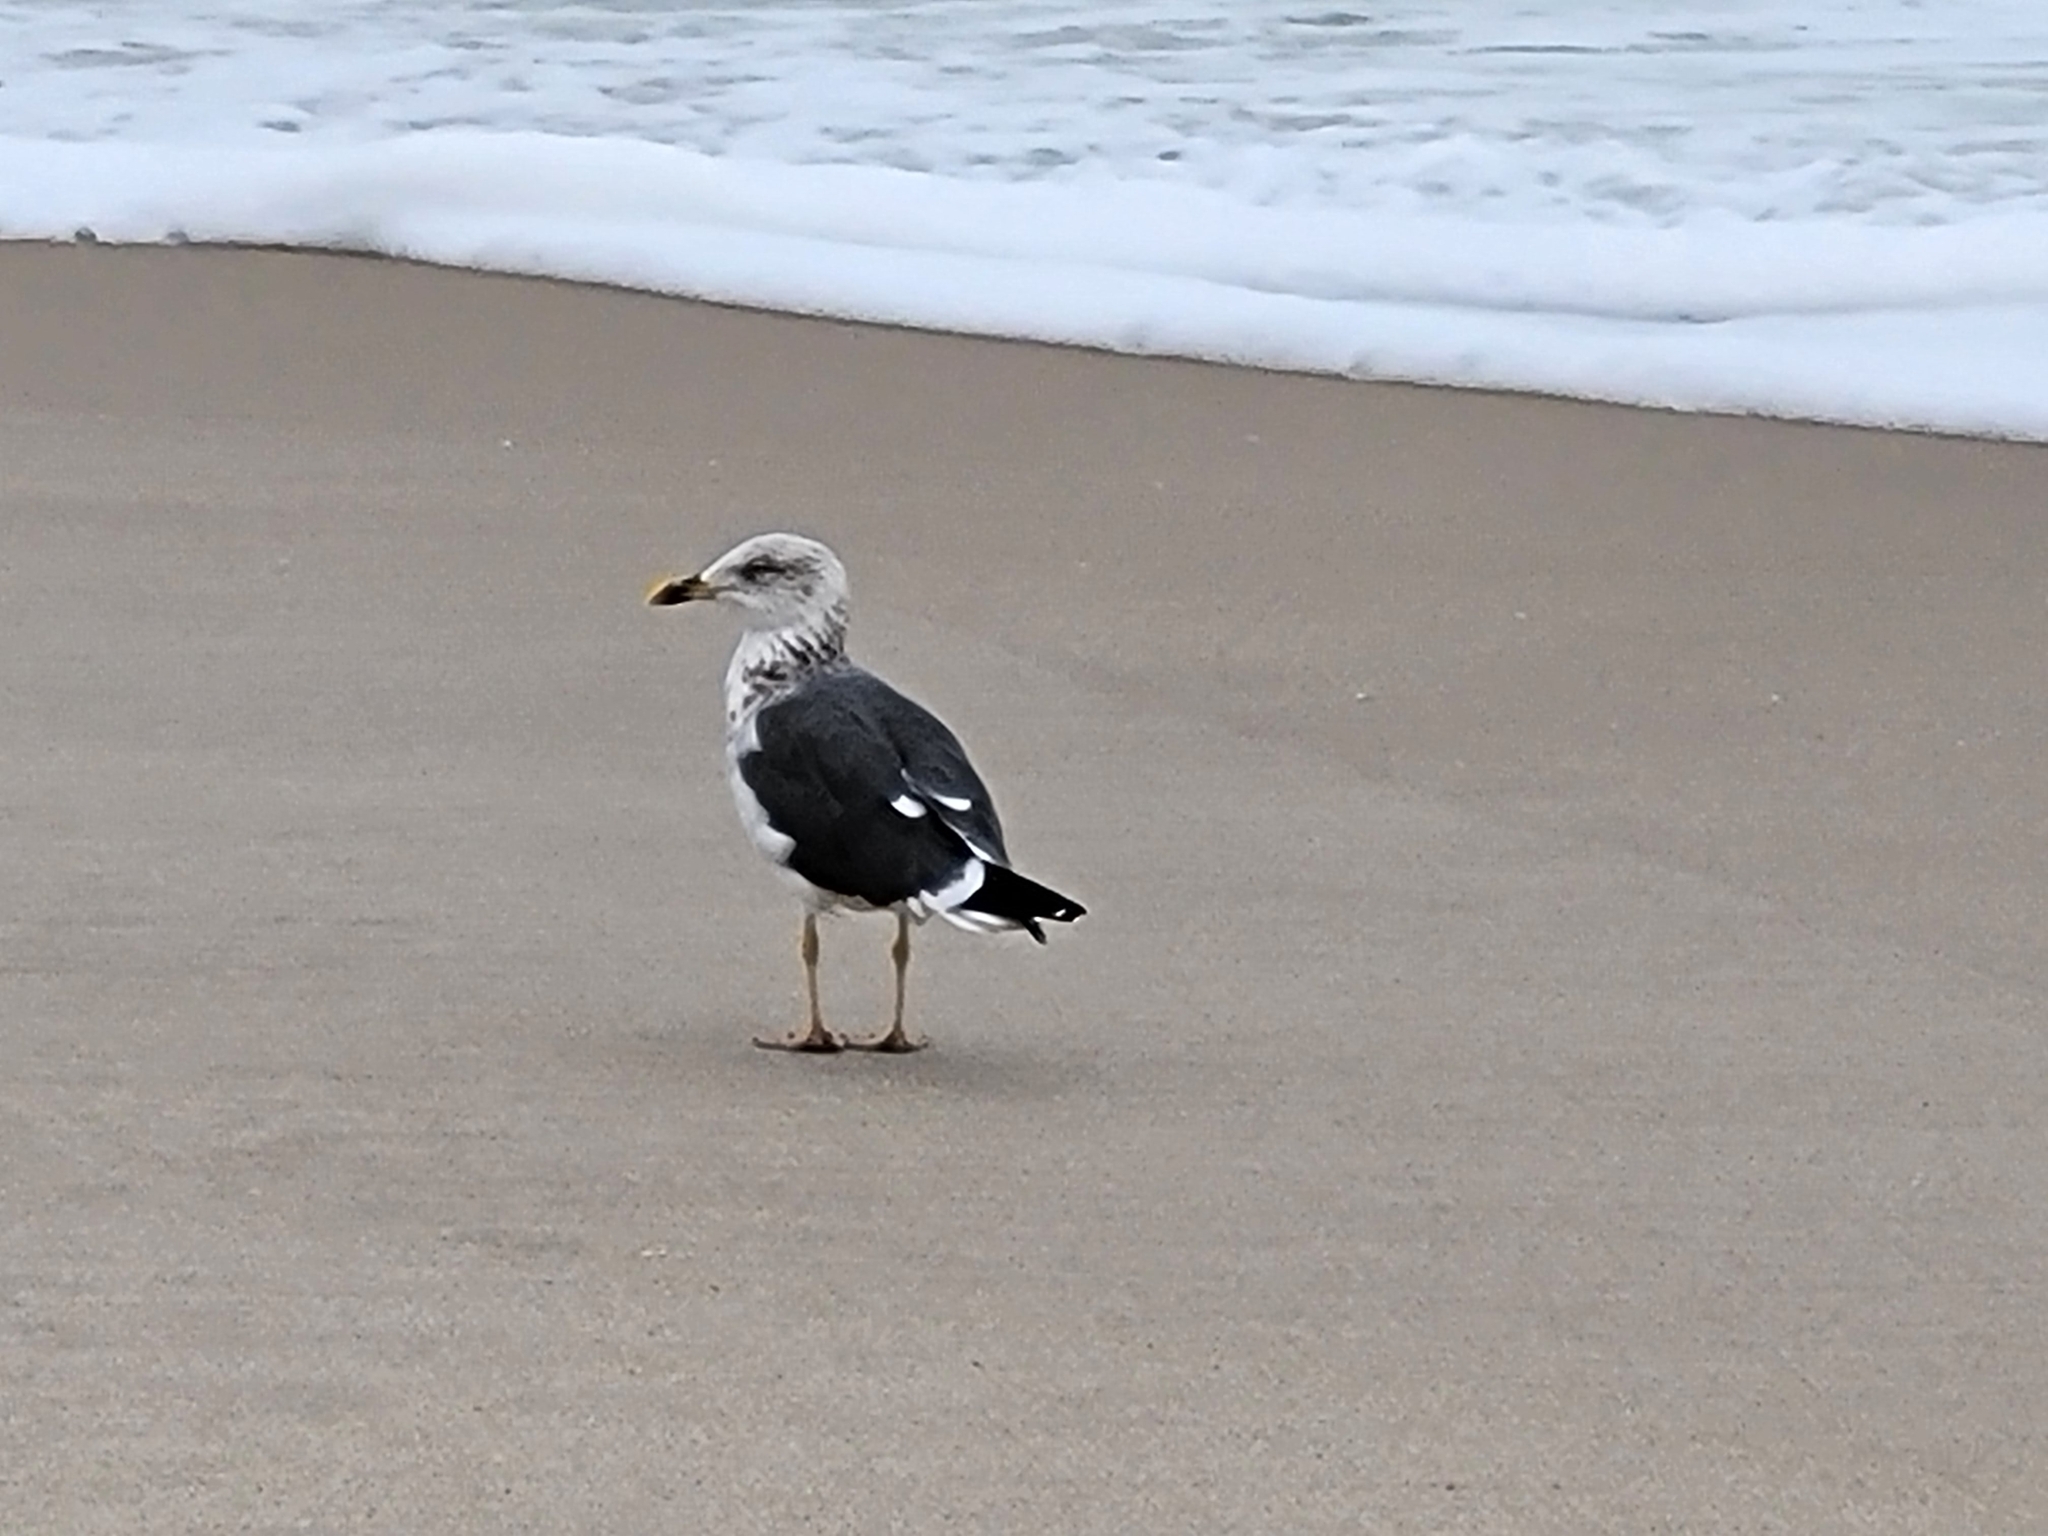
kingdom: Animalia
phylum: Chordata
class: Aves
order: Charadriiformes
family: Laridae
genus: Larus
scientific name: Larus fuscus
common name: Lesser black-backed gull
